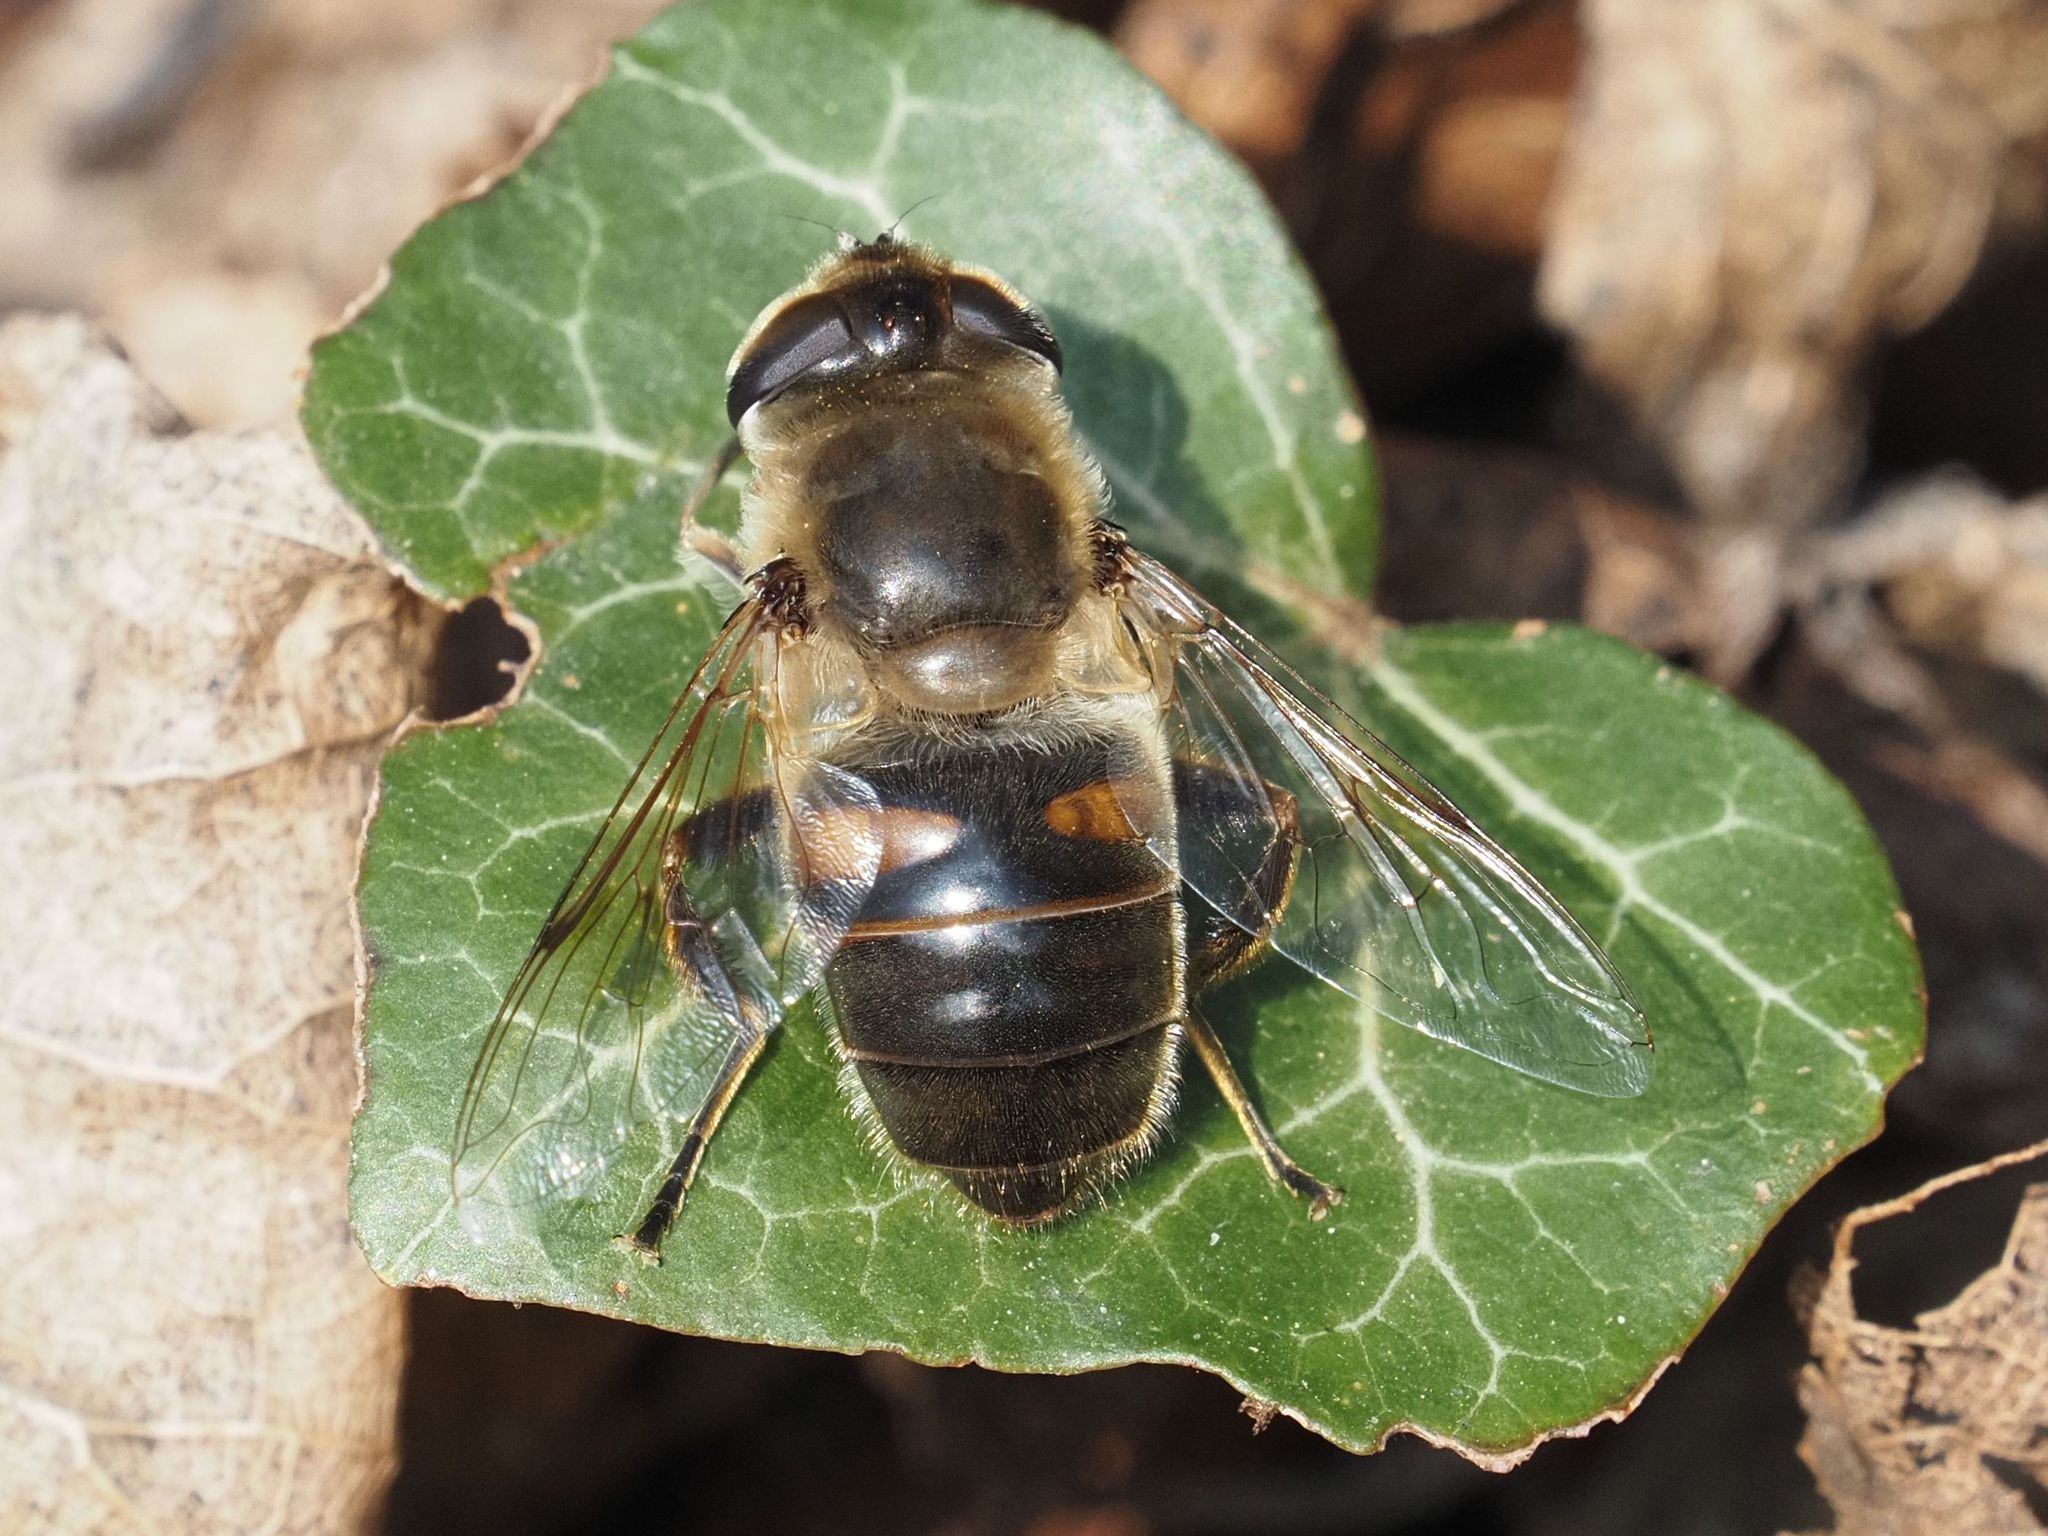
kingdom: Animalia
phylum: Arthropoda
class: Insecta
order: Diptera
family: Syrphidae
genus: Eristalis
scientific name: Eristalis tenax
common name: Drone fly
